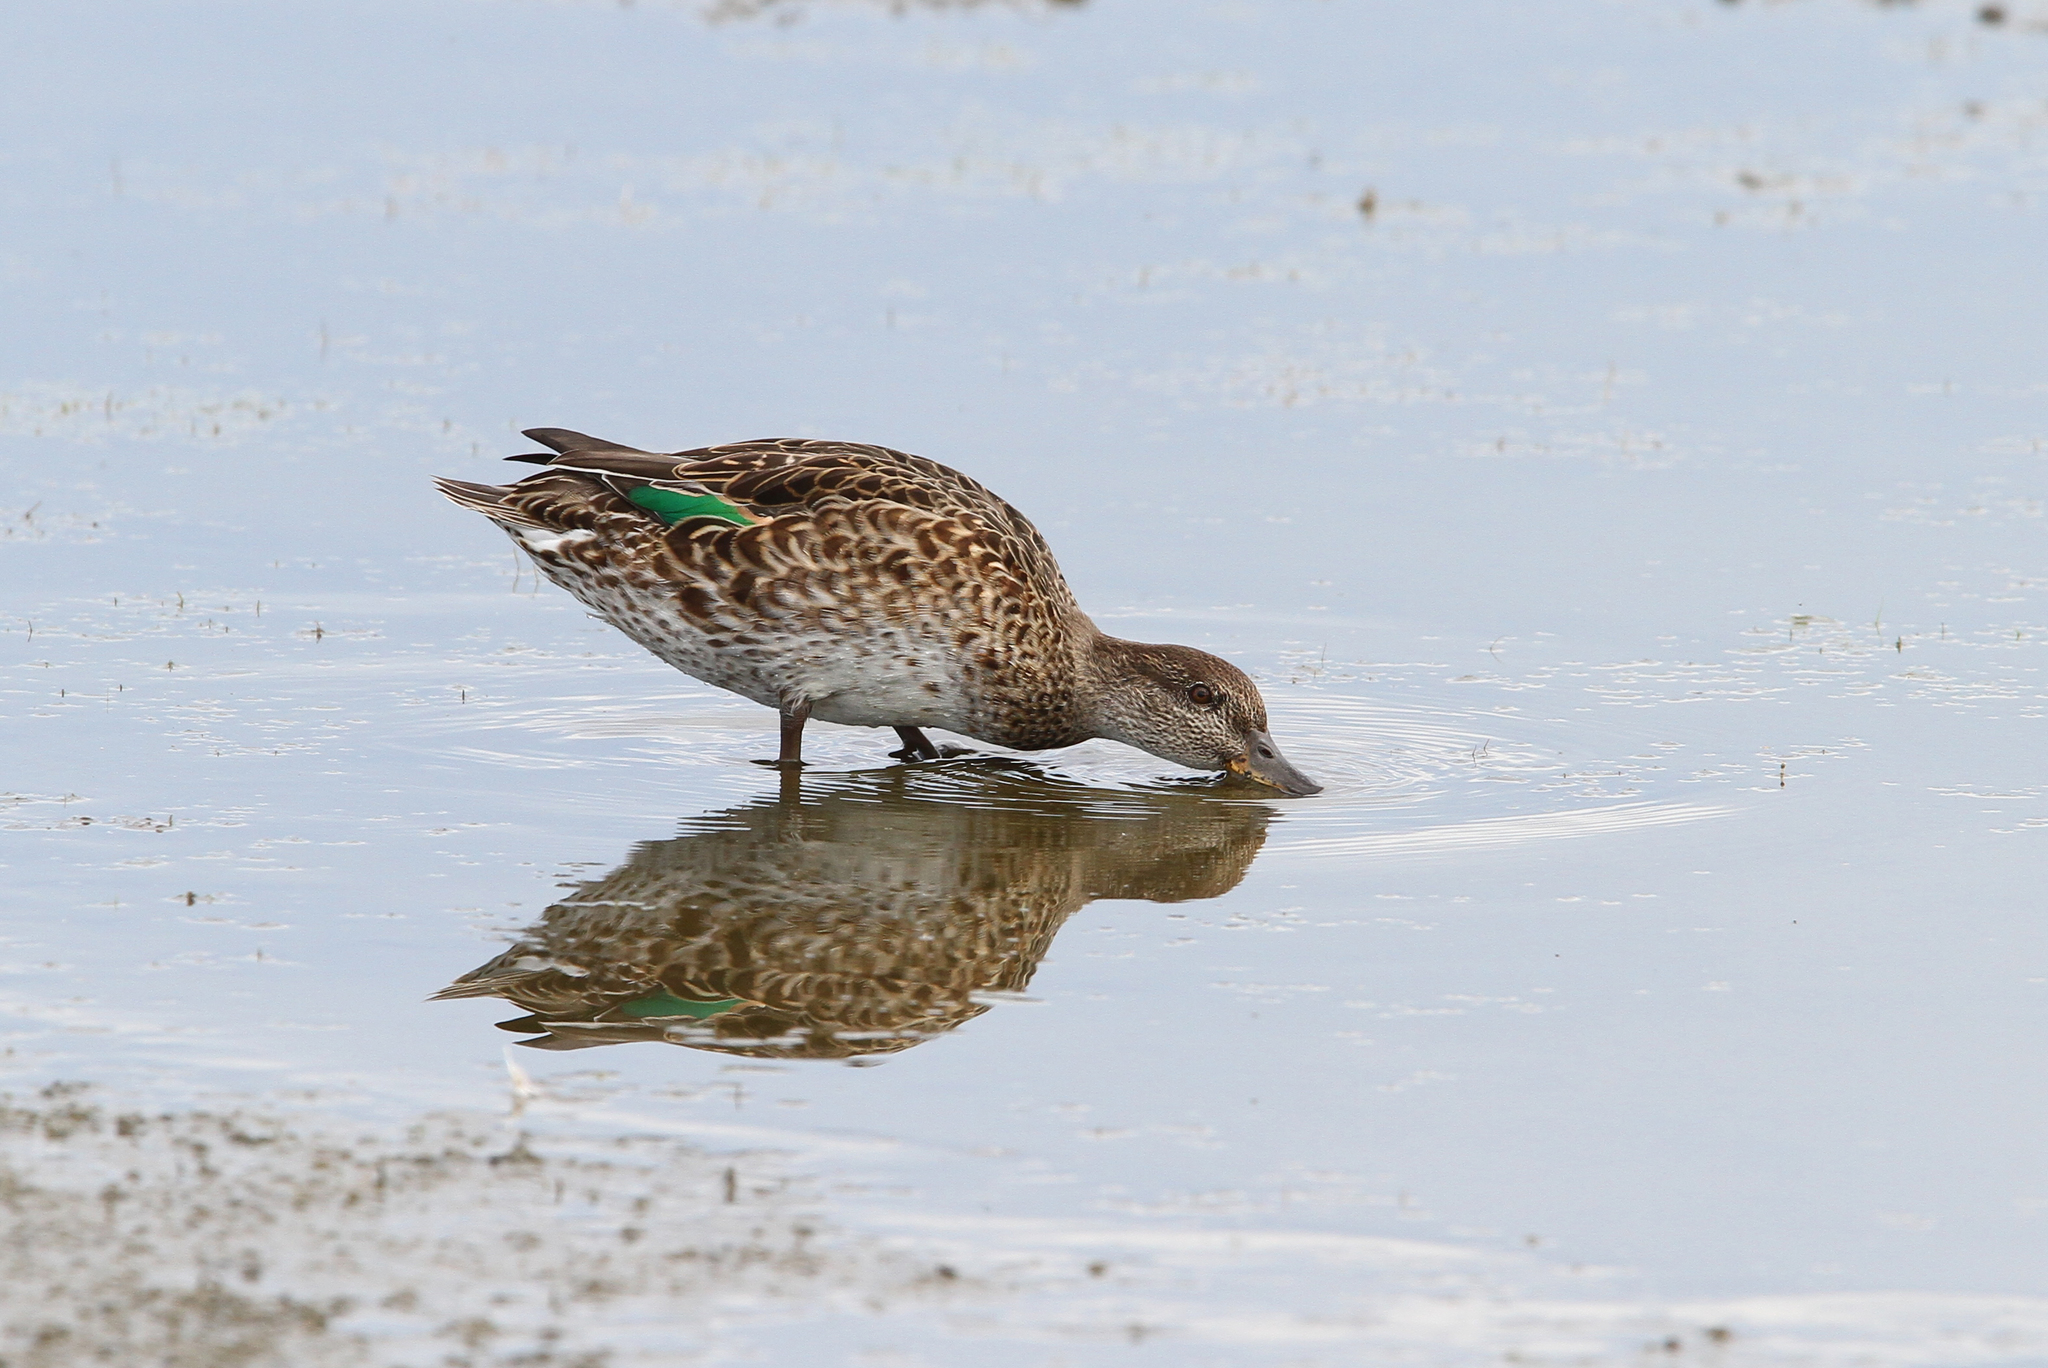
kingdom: Animalia
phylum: Chordata
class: Aves
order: Anseriformes
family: Anatidae
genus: Anas
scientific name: Anas crecca
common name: Eurasian teal
